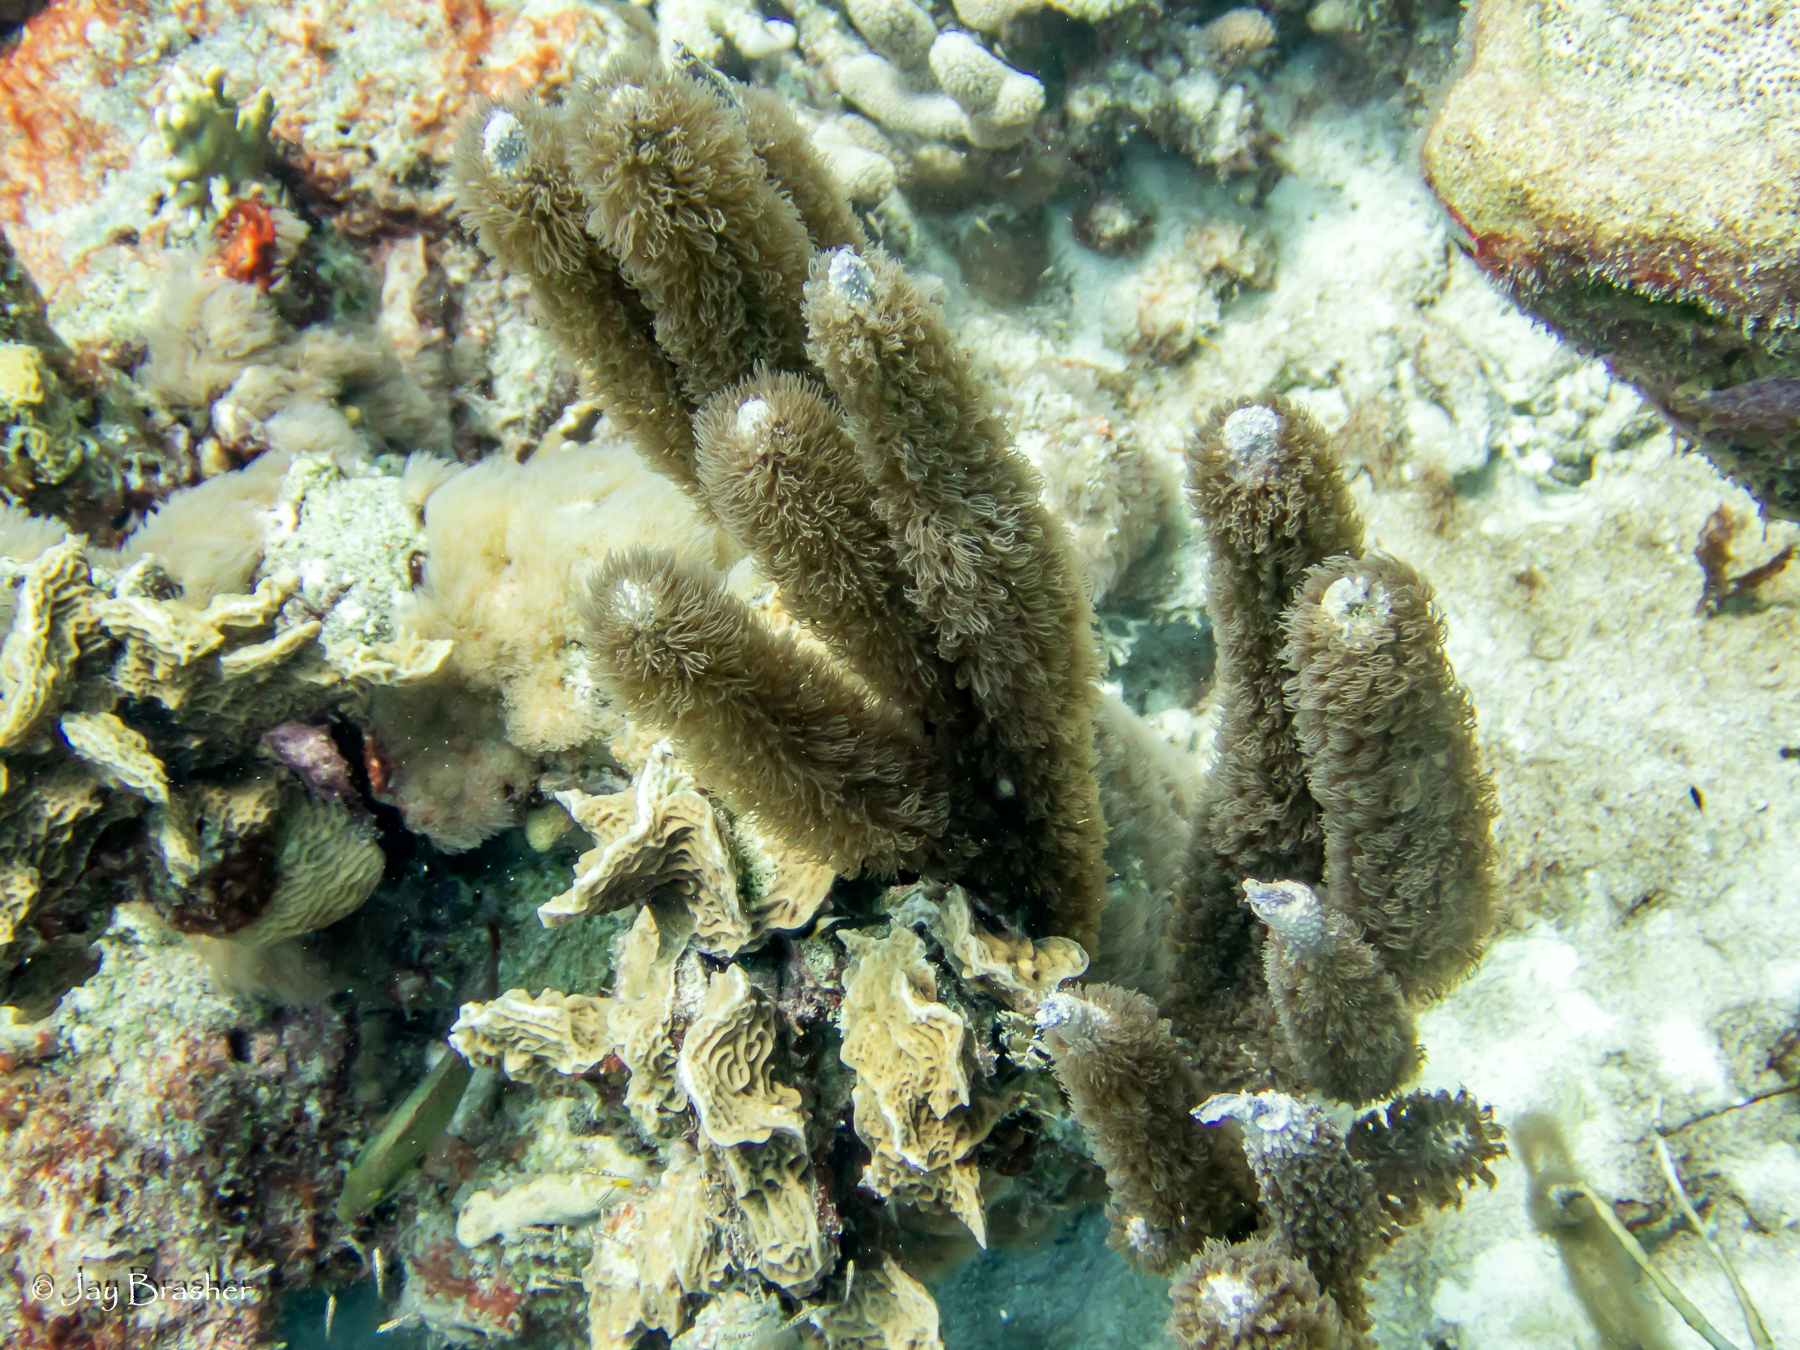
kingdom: Animalia
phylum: Cnidaria
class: Anthozoa
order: Scleractinia
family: Agariciidae
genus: Agaricia
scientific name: Agaricia agaricites
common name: Lettuce coral
